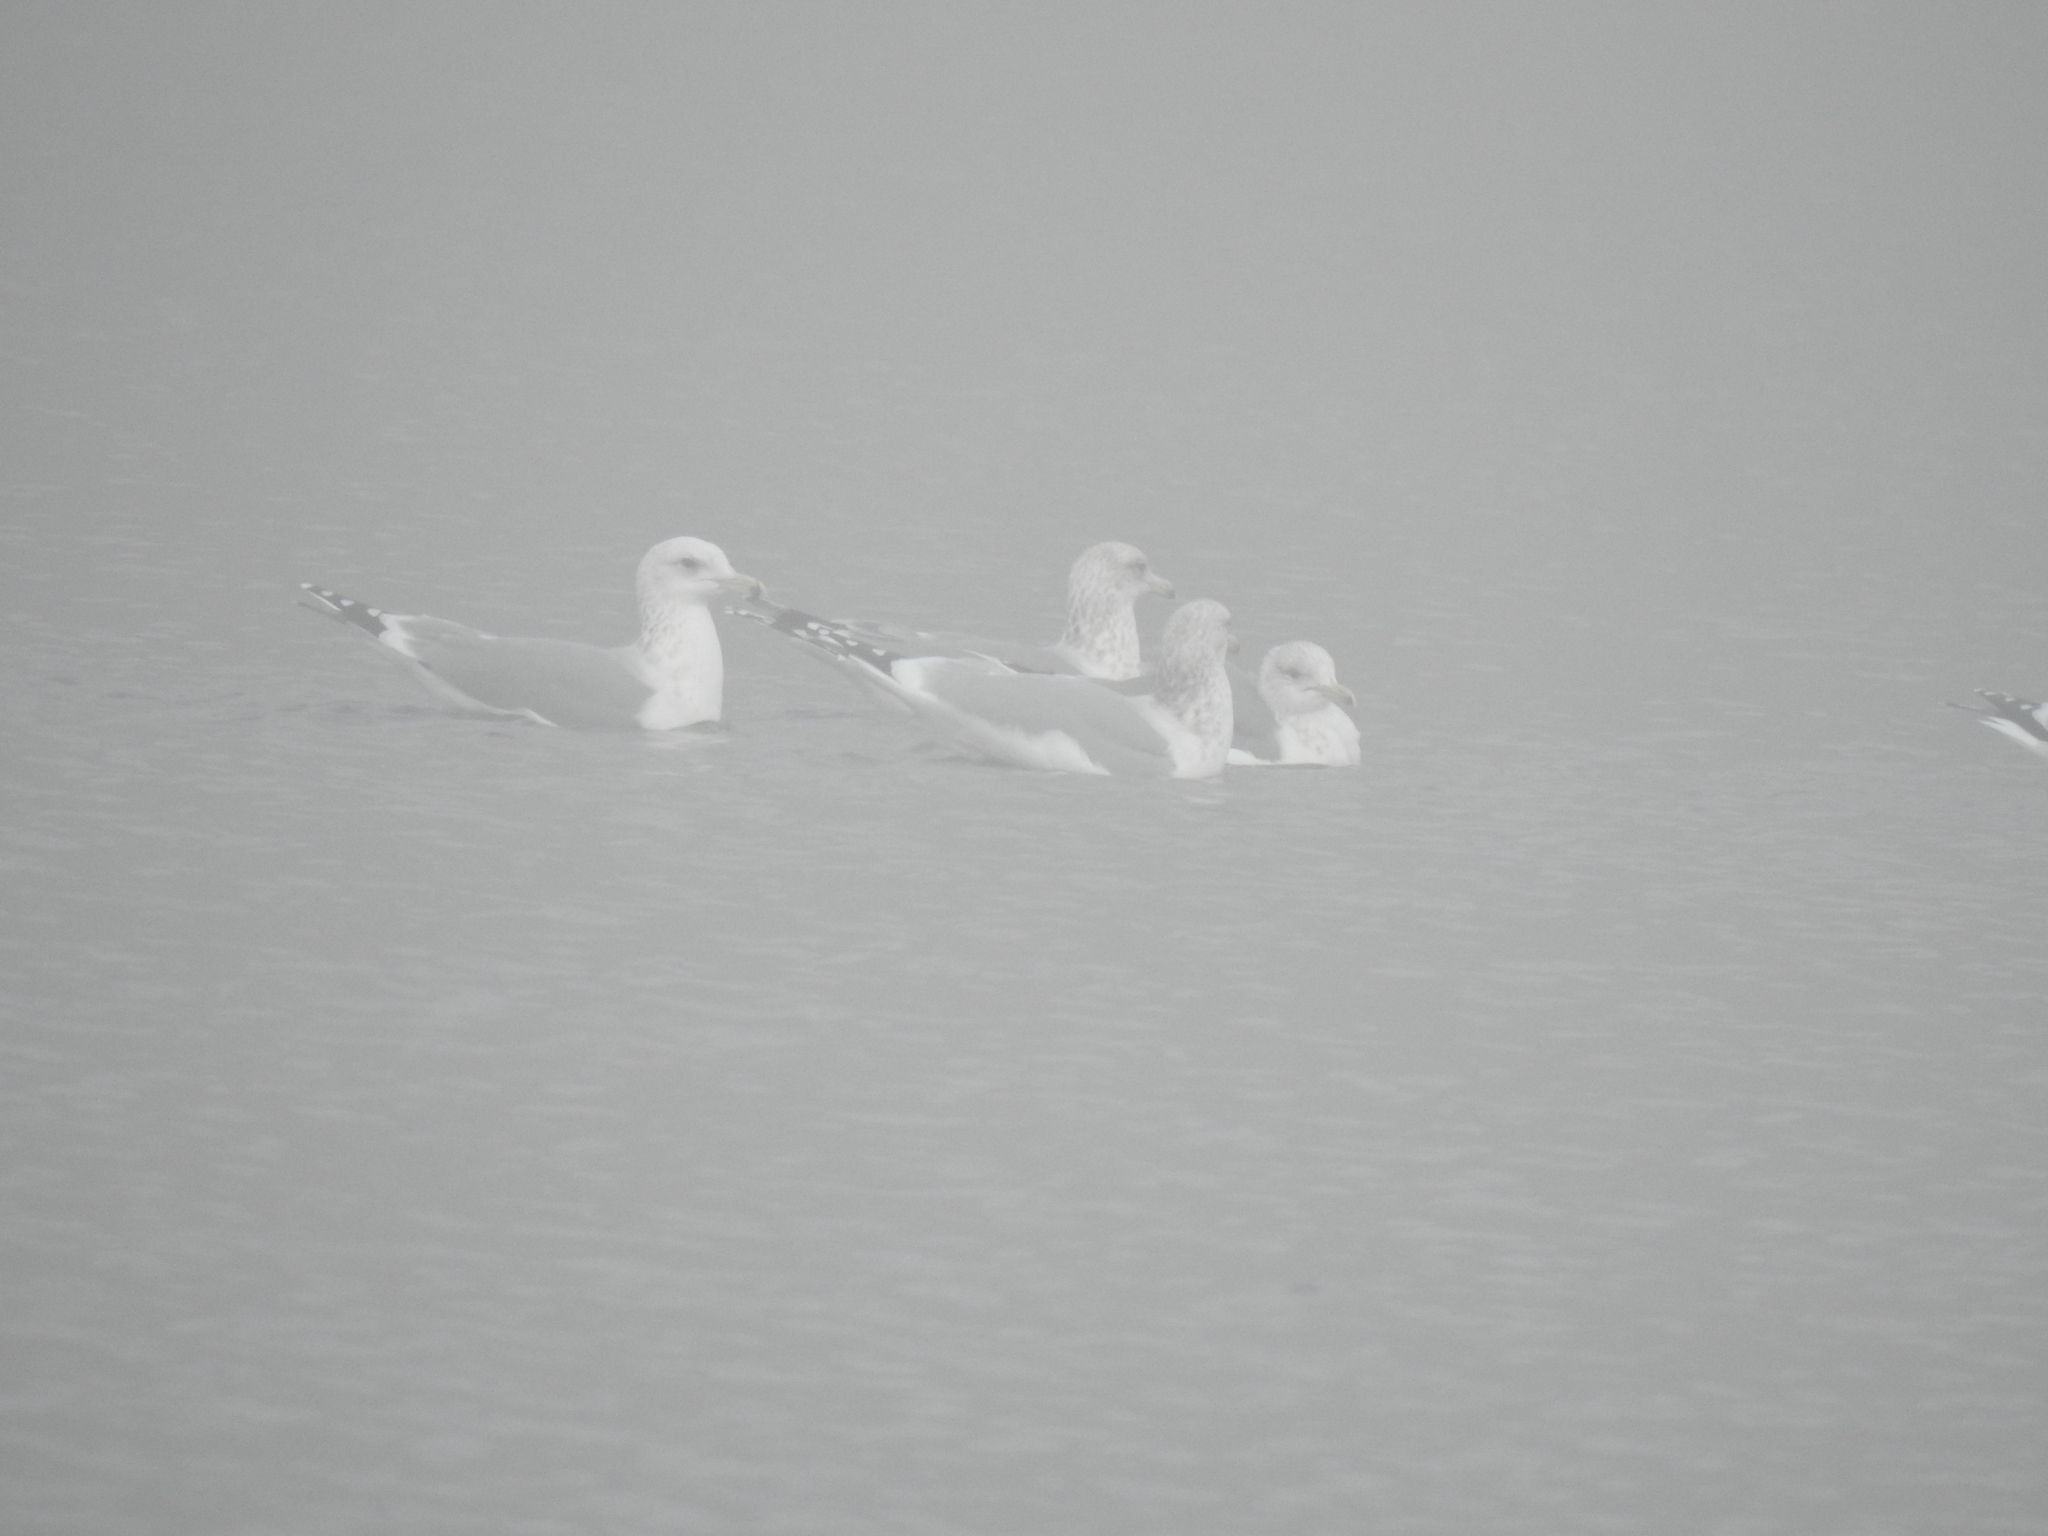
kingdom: Animalia
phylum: Chordata
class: Aves
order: Charadriiformes
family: Laridae
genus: Larus
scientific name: Larus californicus
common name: California gull
